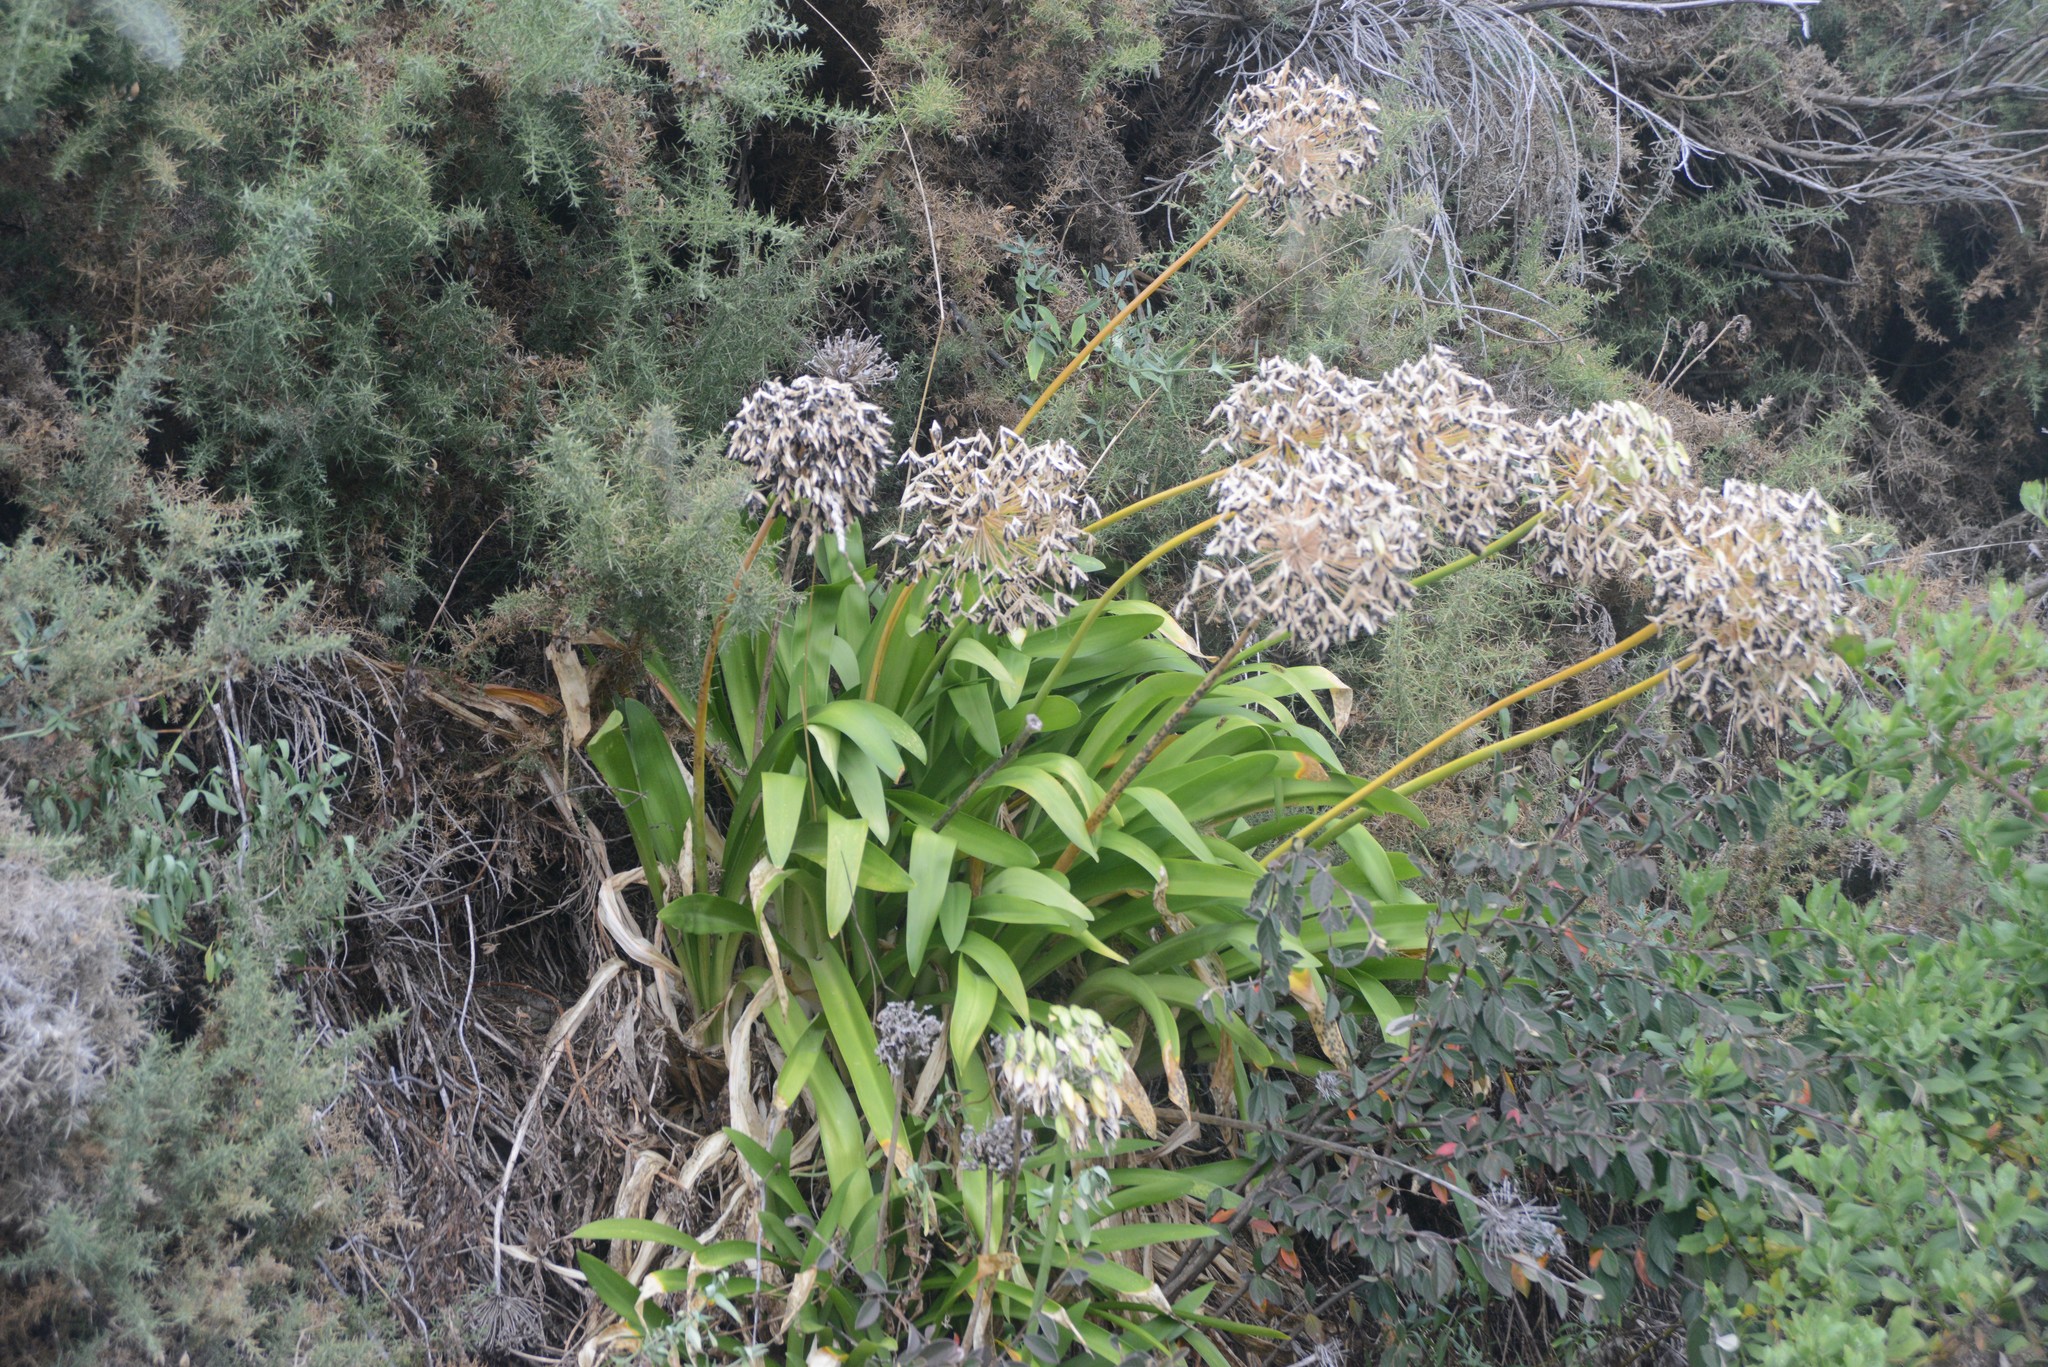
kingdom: Plantae
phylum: Tracheophyta
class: Liliopsida
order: Asparagales
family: Amaryllidaceae
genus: Agapanthus
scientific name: Agapanthus praecox
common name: African-lily
